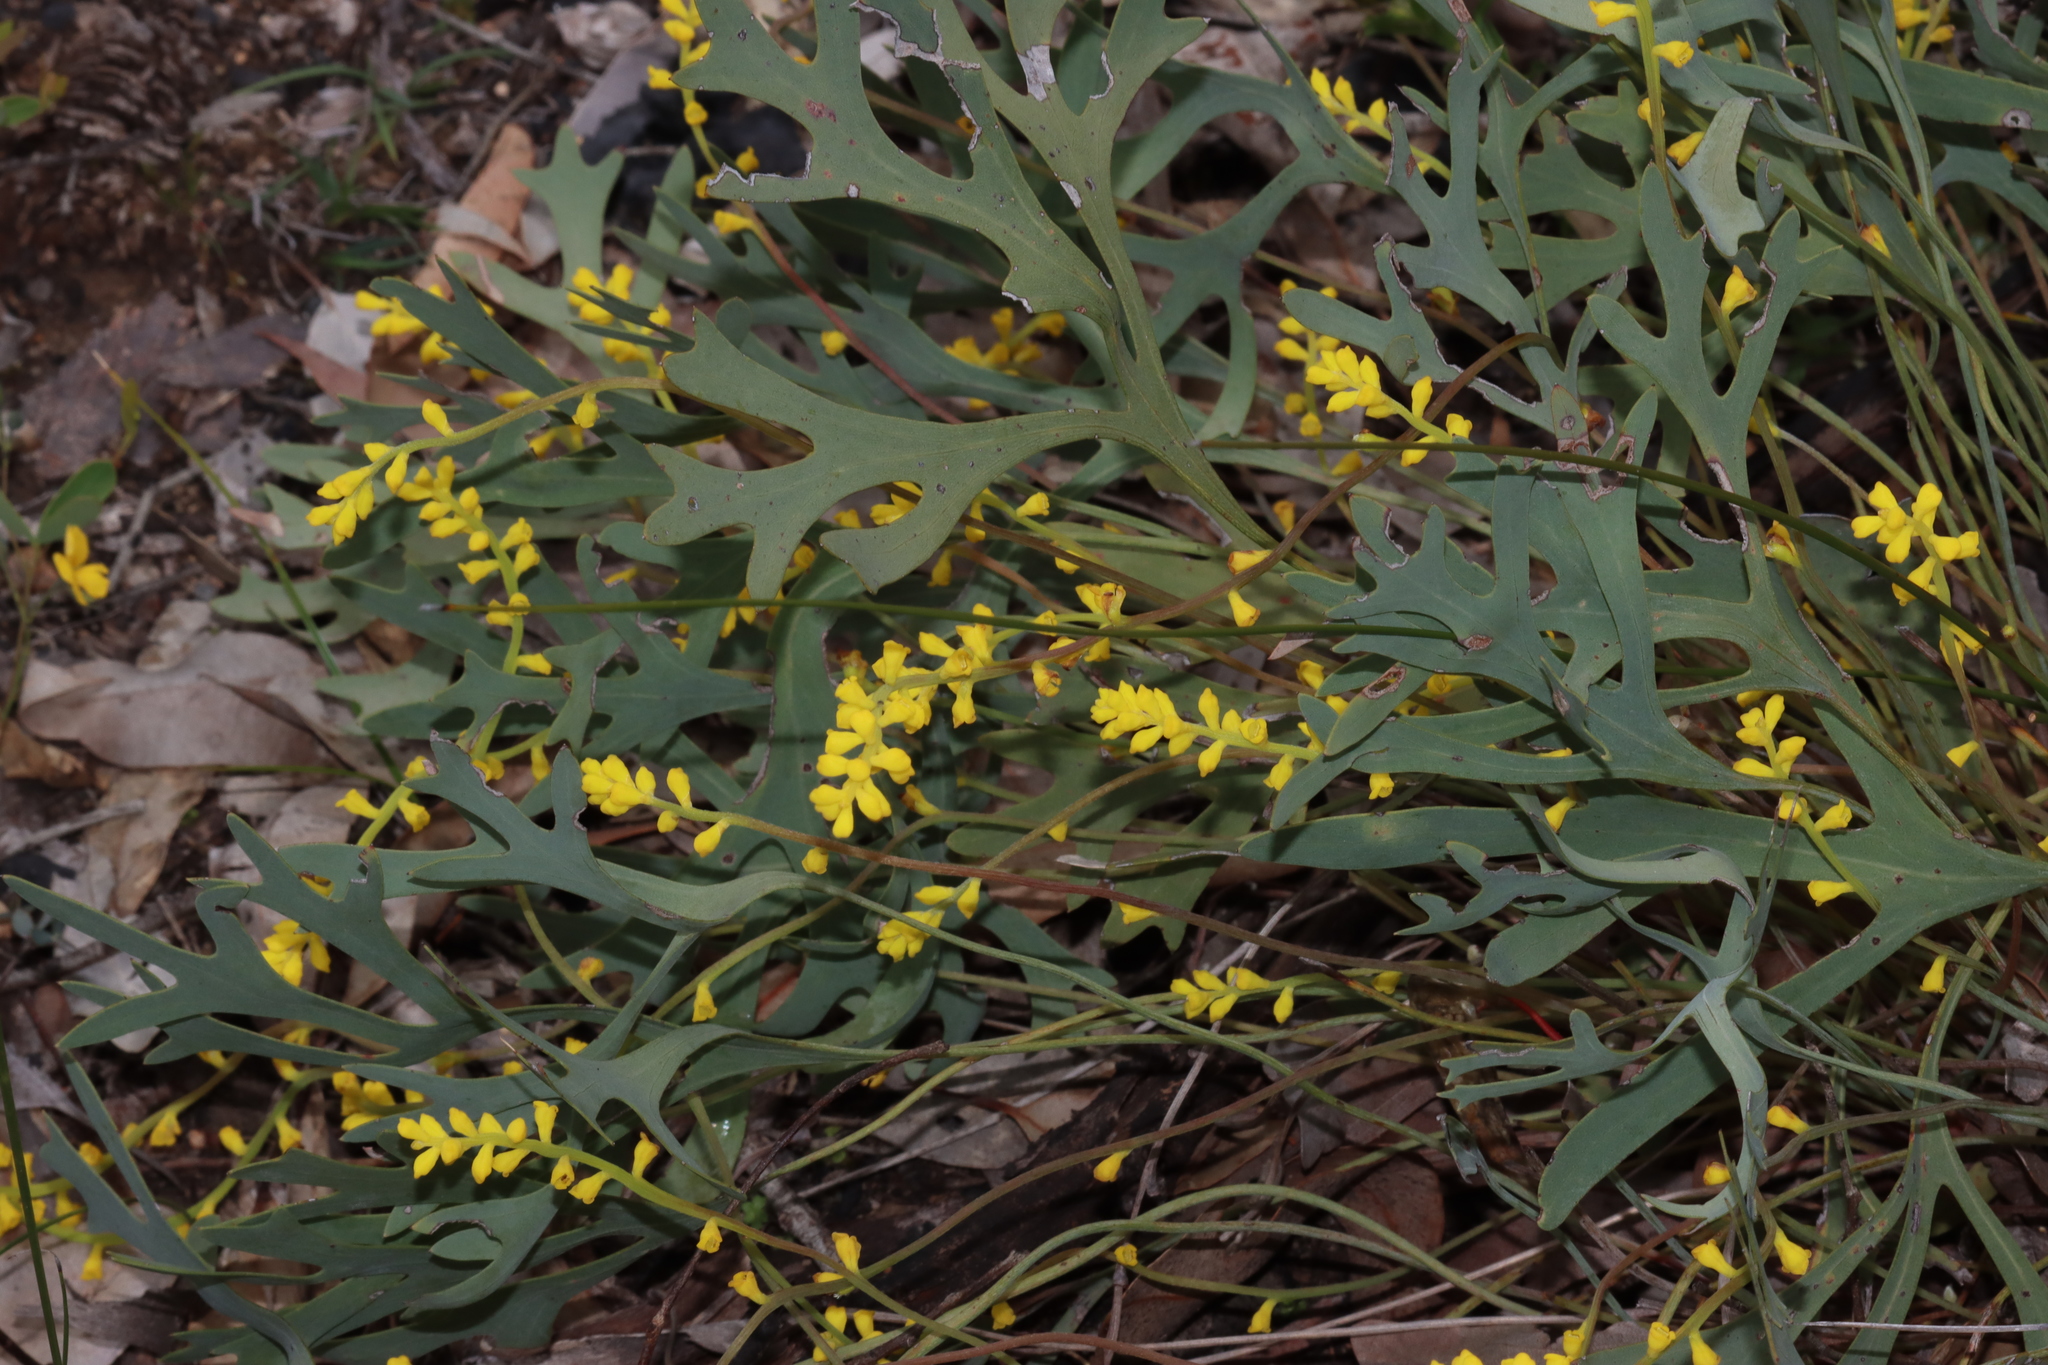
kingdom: Plantae
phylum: Tracheophyta
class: Magnoliopsida
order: Proteales
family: Proteaceae
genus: Synaphea
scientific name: Synaphea petiolaris
